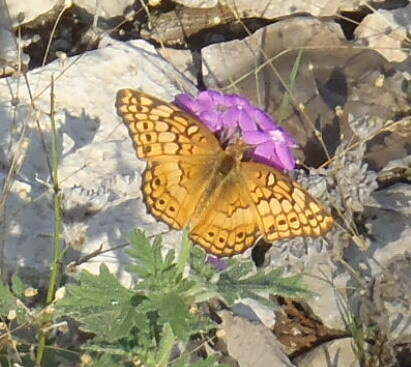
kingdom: Animalia
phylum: Arthropoda
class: Insecta
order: Lepidoptera
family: Nymphalidae
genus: Euptoieta
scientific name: Euptoieta claudia
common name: Variegated fritillary
